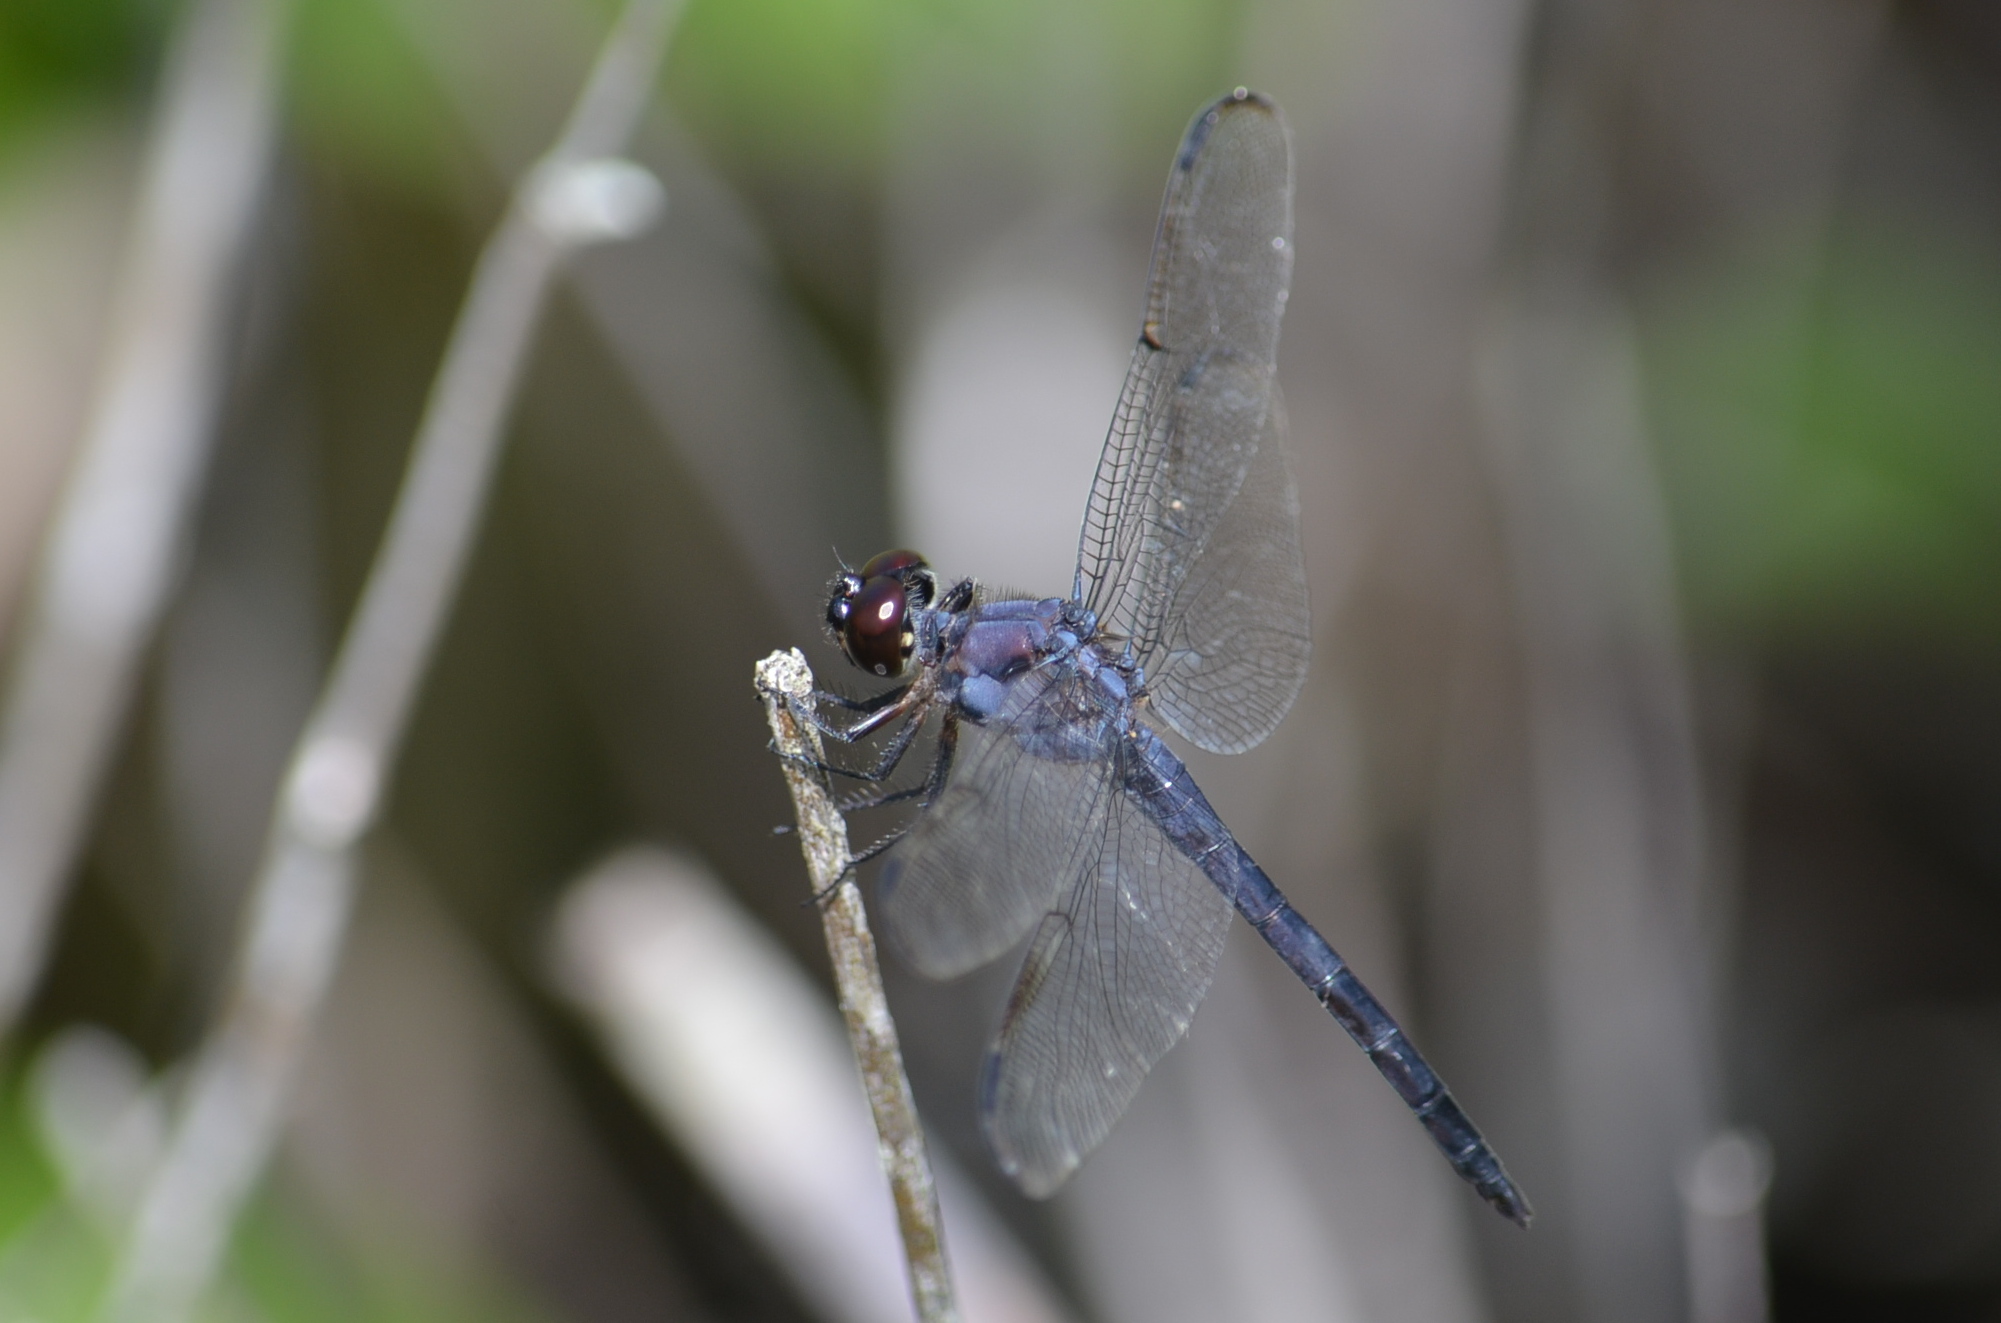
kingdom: Animalia
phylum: Arthropoda
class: Insecta
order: Odonata
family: Libellulidae
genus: Libellula
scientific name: Libellula incesta
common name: Slaty skimmer
